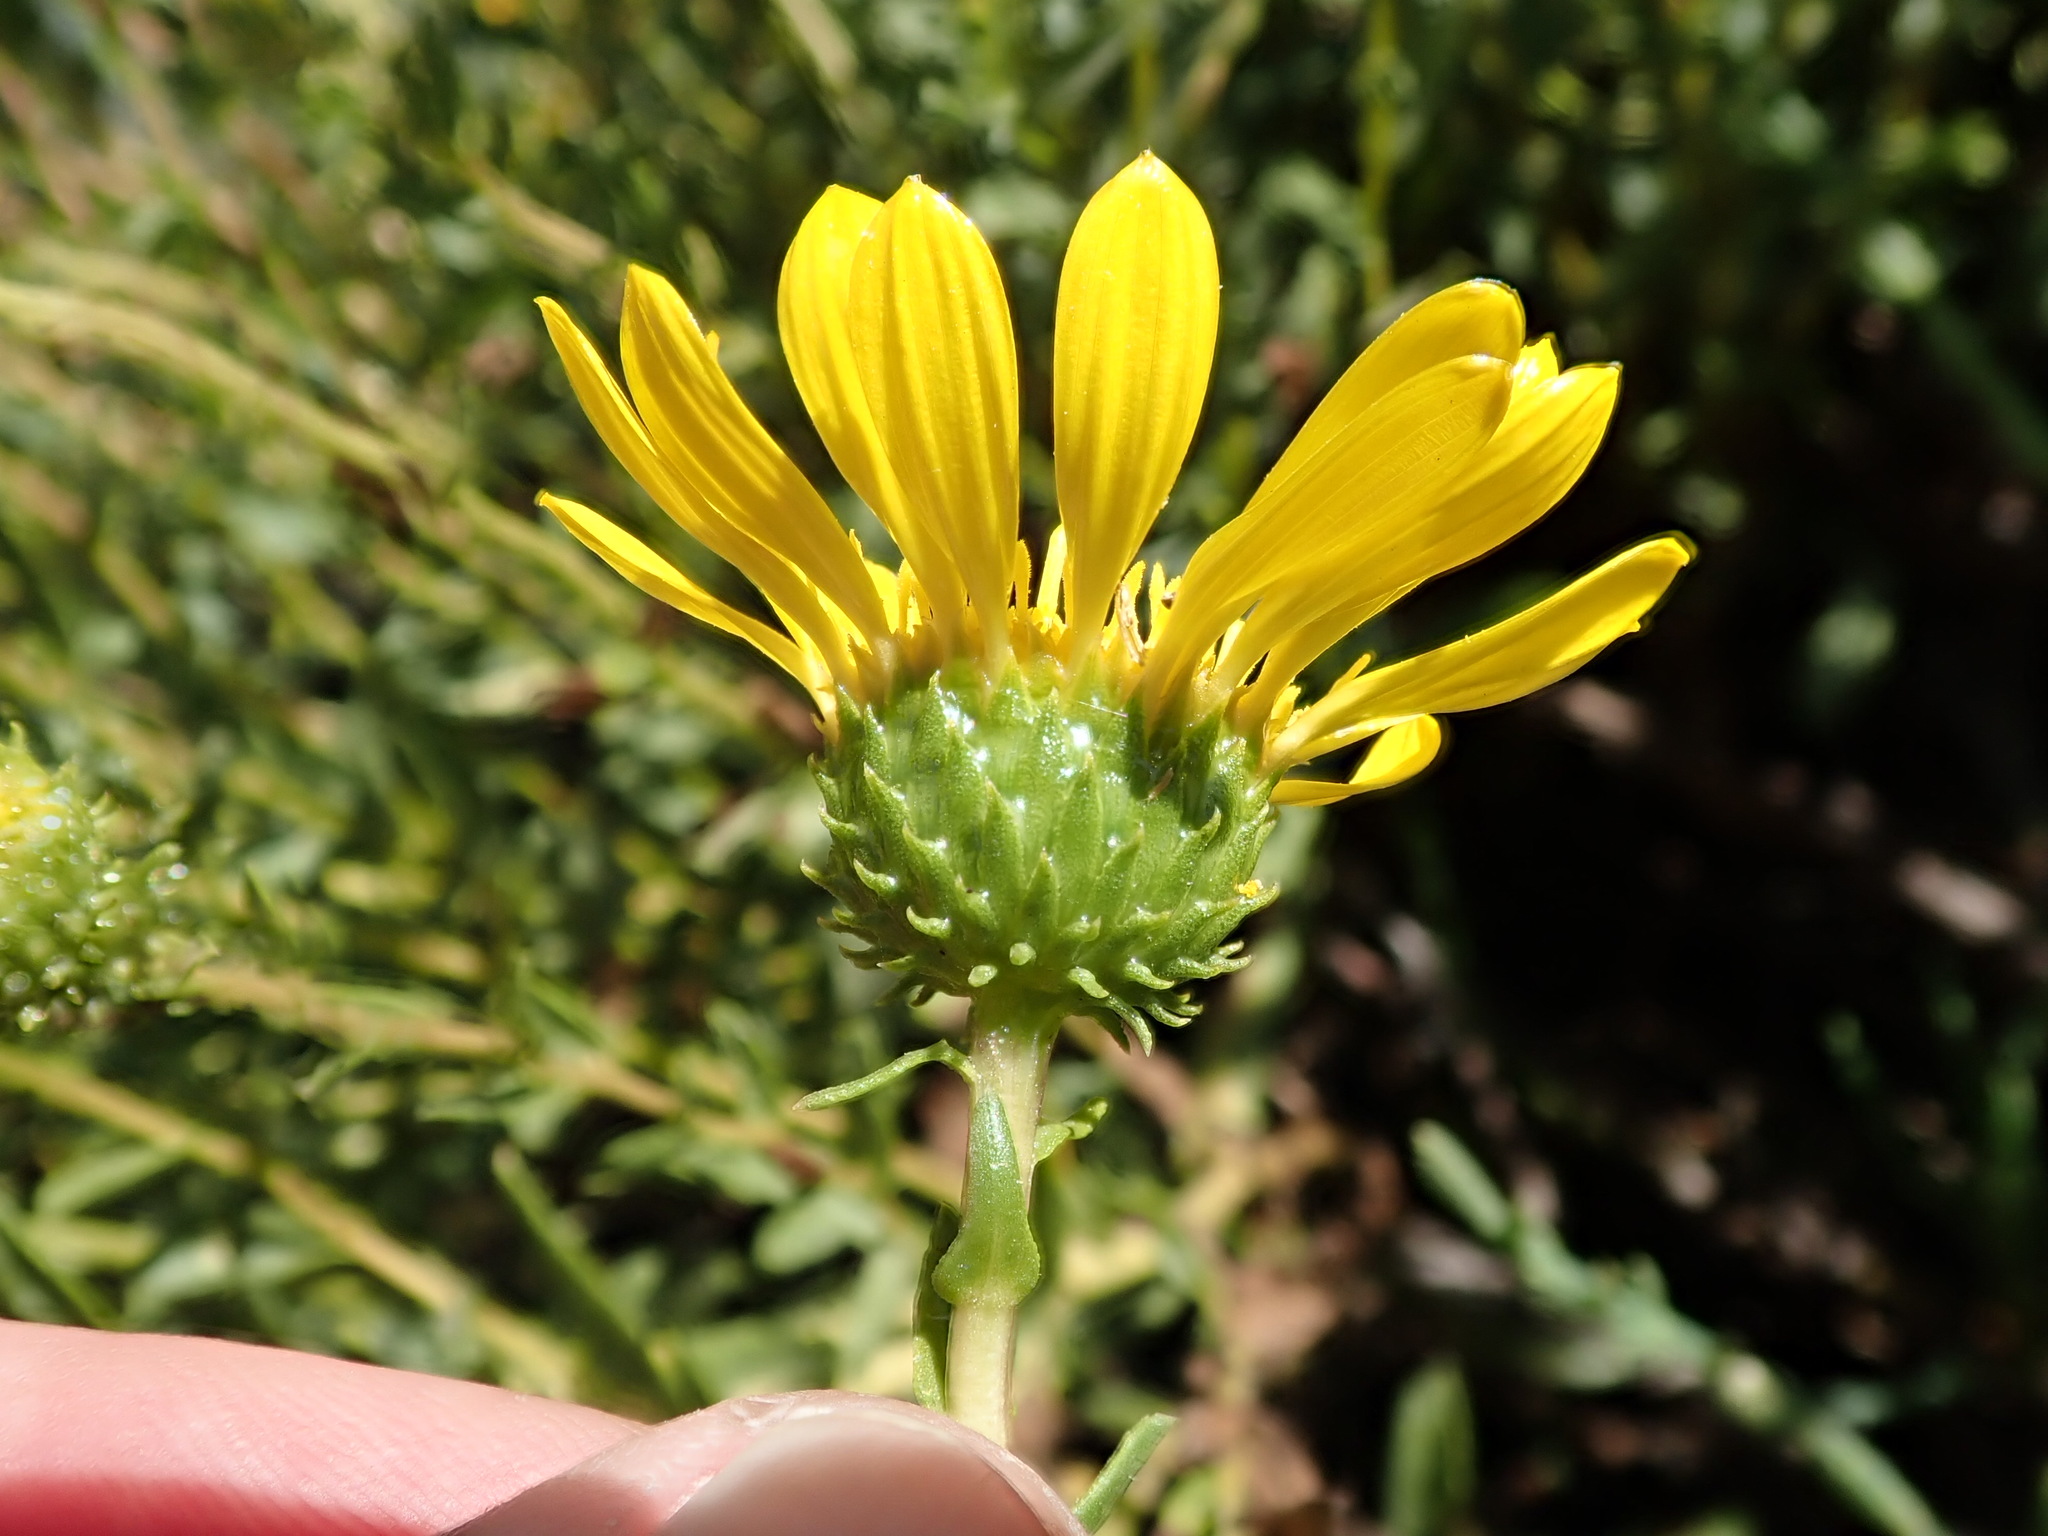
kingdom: Plantae
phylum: Tracheophyta
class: Magnoliopsida
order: Asterales
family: Asteraceae
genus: Grindelia
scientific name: Grindelia hirsutula
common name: Hairy gumweed
